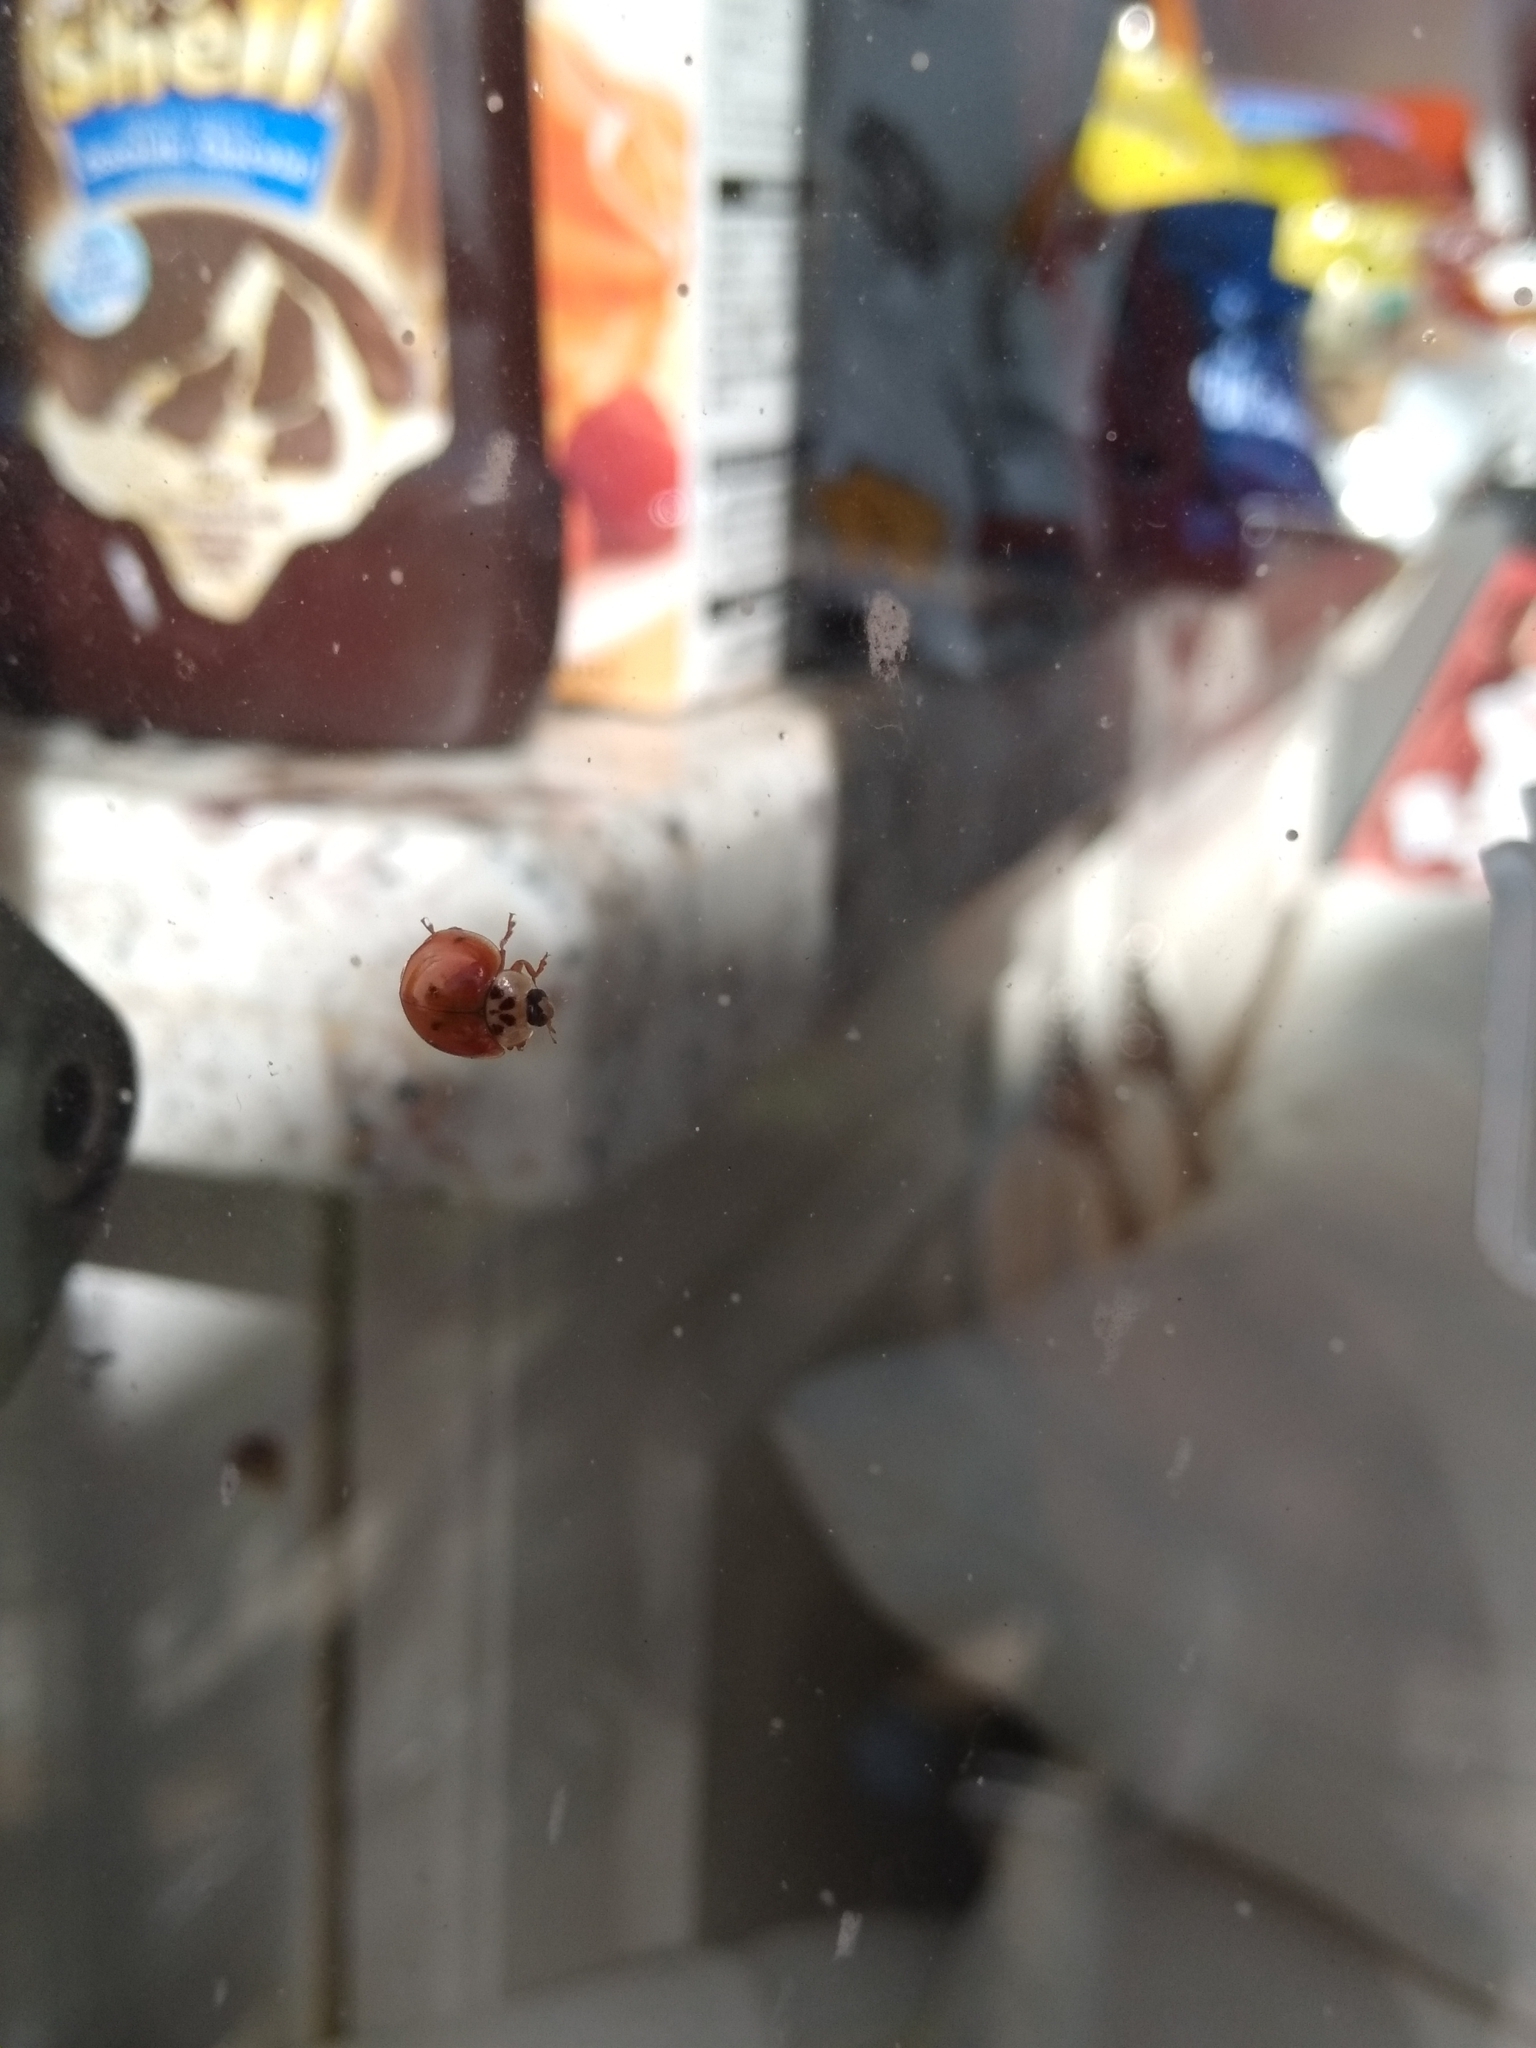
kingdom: Animalia
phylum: Arthropoda
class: Insecta
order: Coleoptera
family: Coccinellidae
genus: Harmonia
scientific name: Harmonia axyridis
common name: Harlequin ladybird
